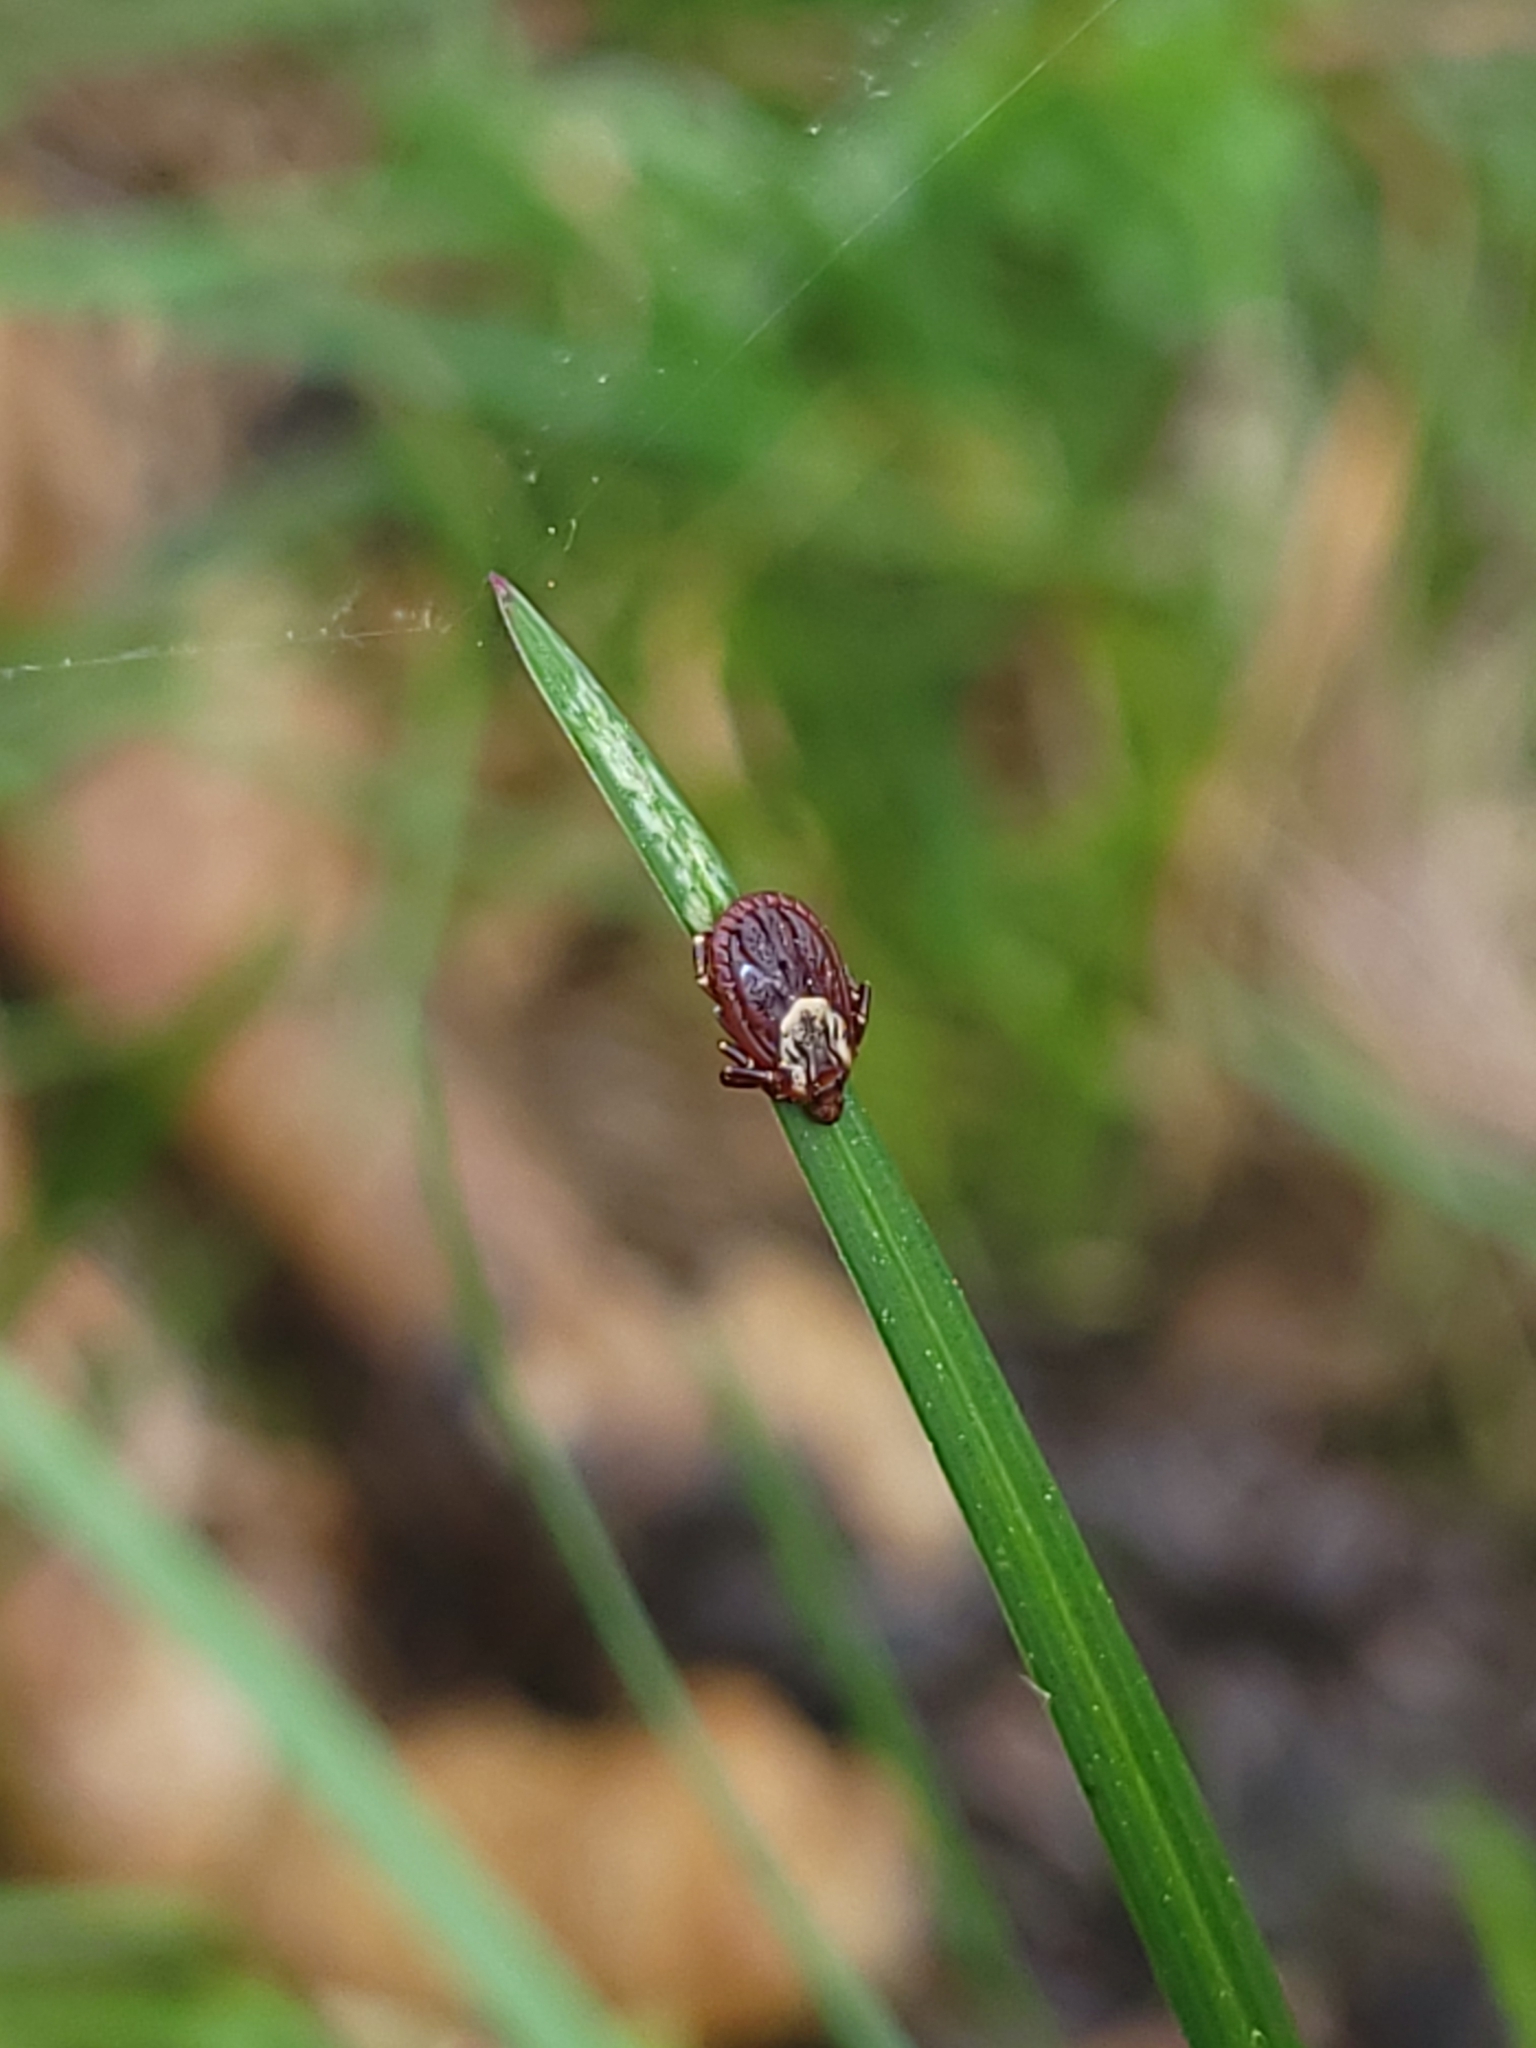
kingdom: Animalia
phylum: Arthropoda
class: Arachnida
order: Ixodida
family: Ixodidae
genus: Dermacentor
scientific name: Dermacentor variabilis
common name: American dog tick
